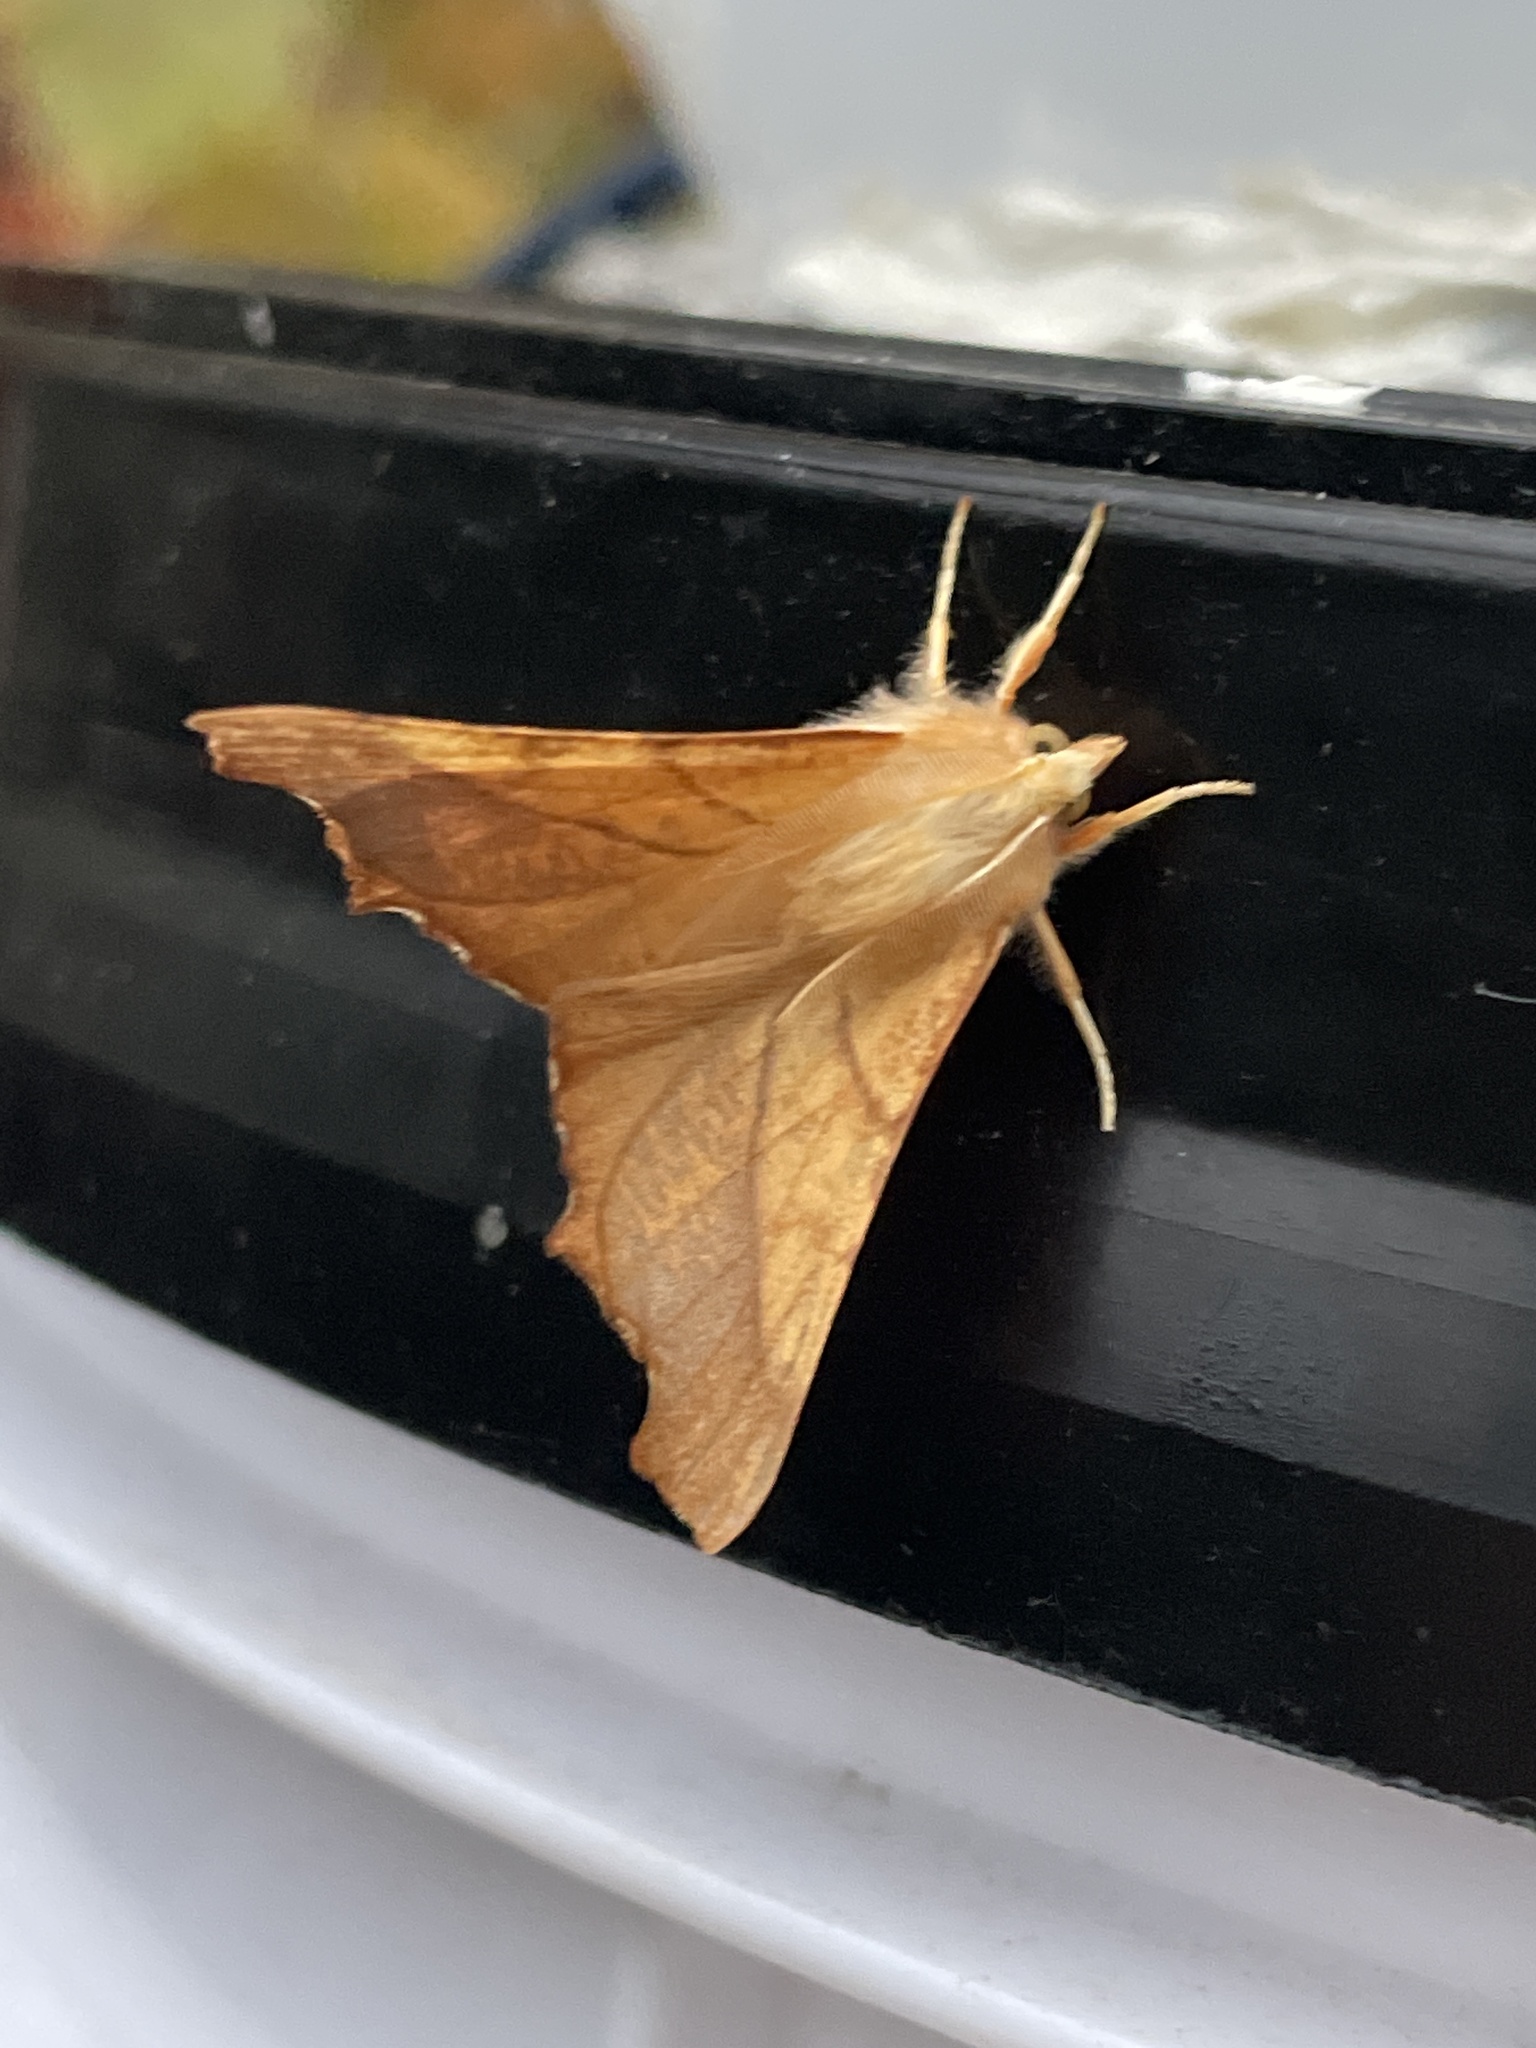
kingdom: Animalia
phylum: Arthropoda
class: Insecta
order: Lepidoptera
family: Geometridae
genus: Ennomos
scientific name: Ennomos fuscantaria
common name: Dusky thorn
